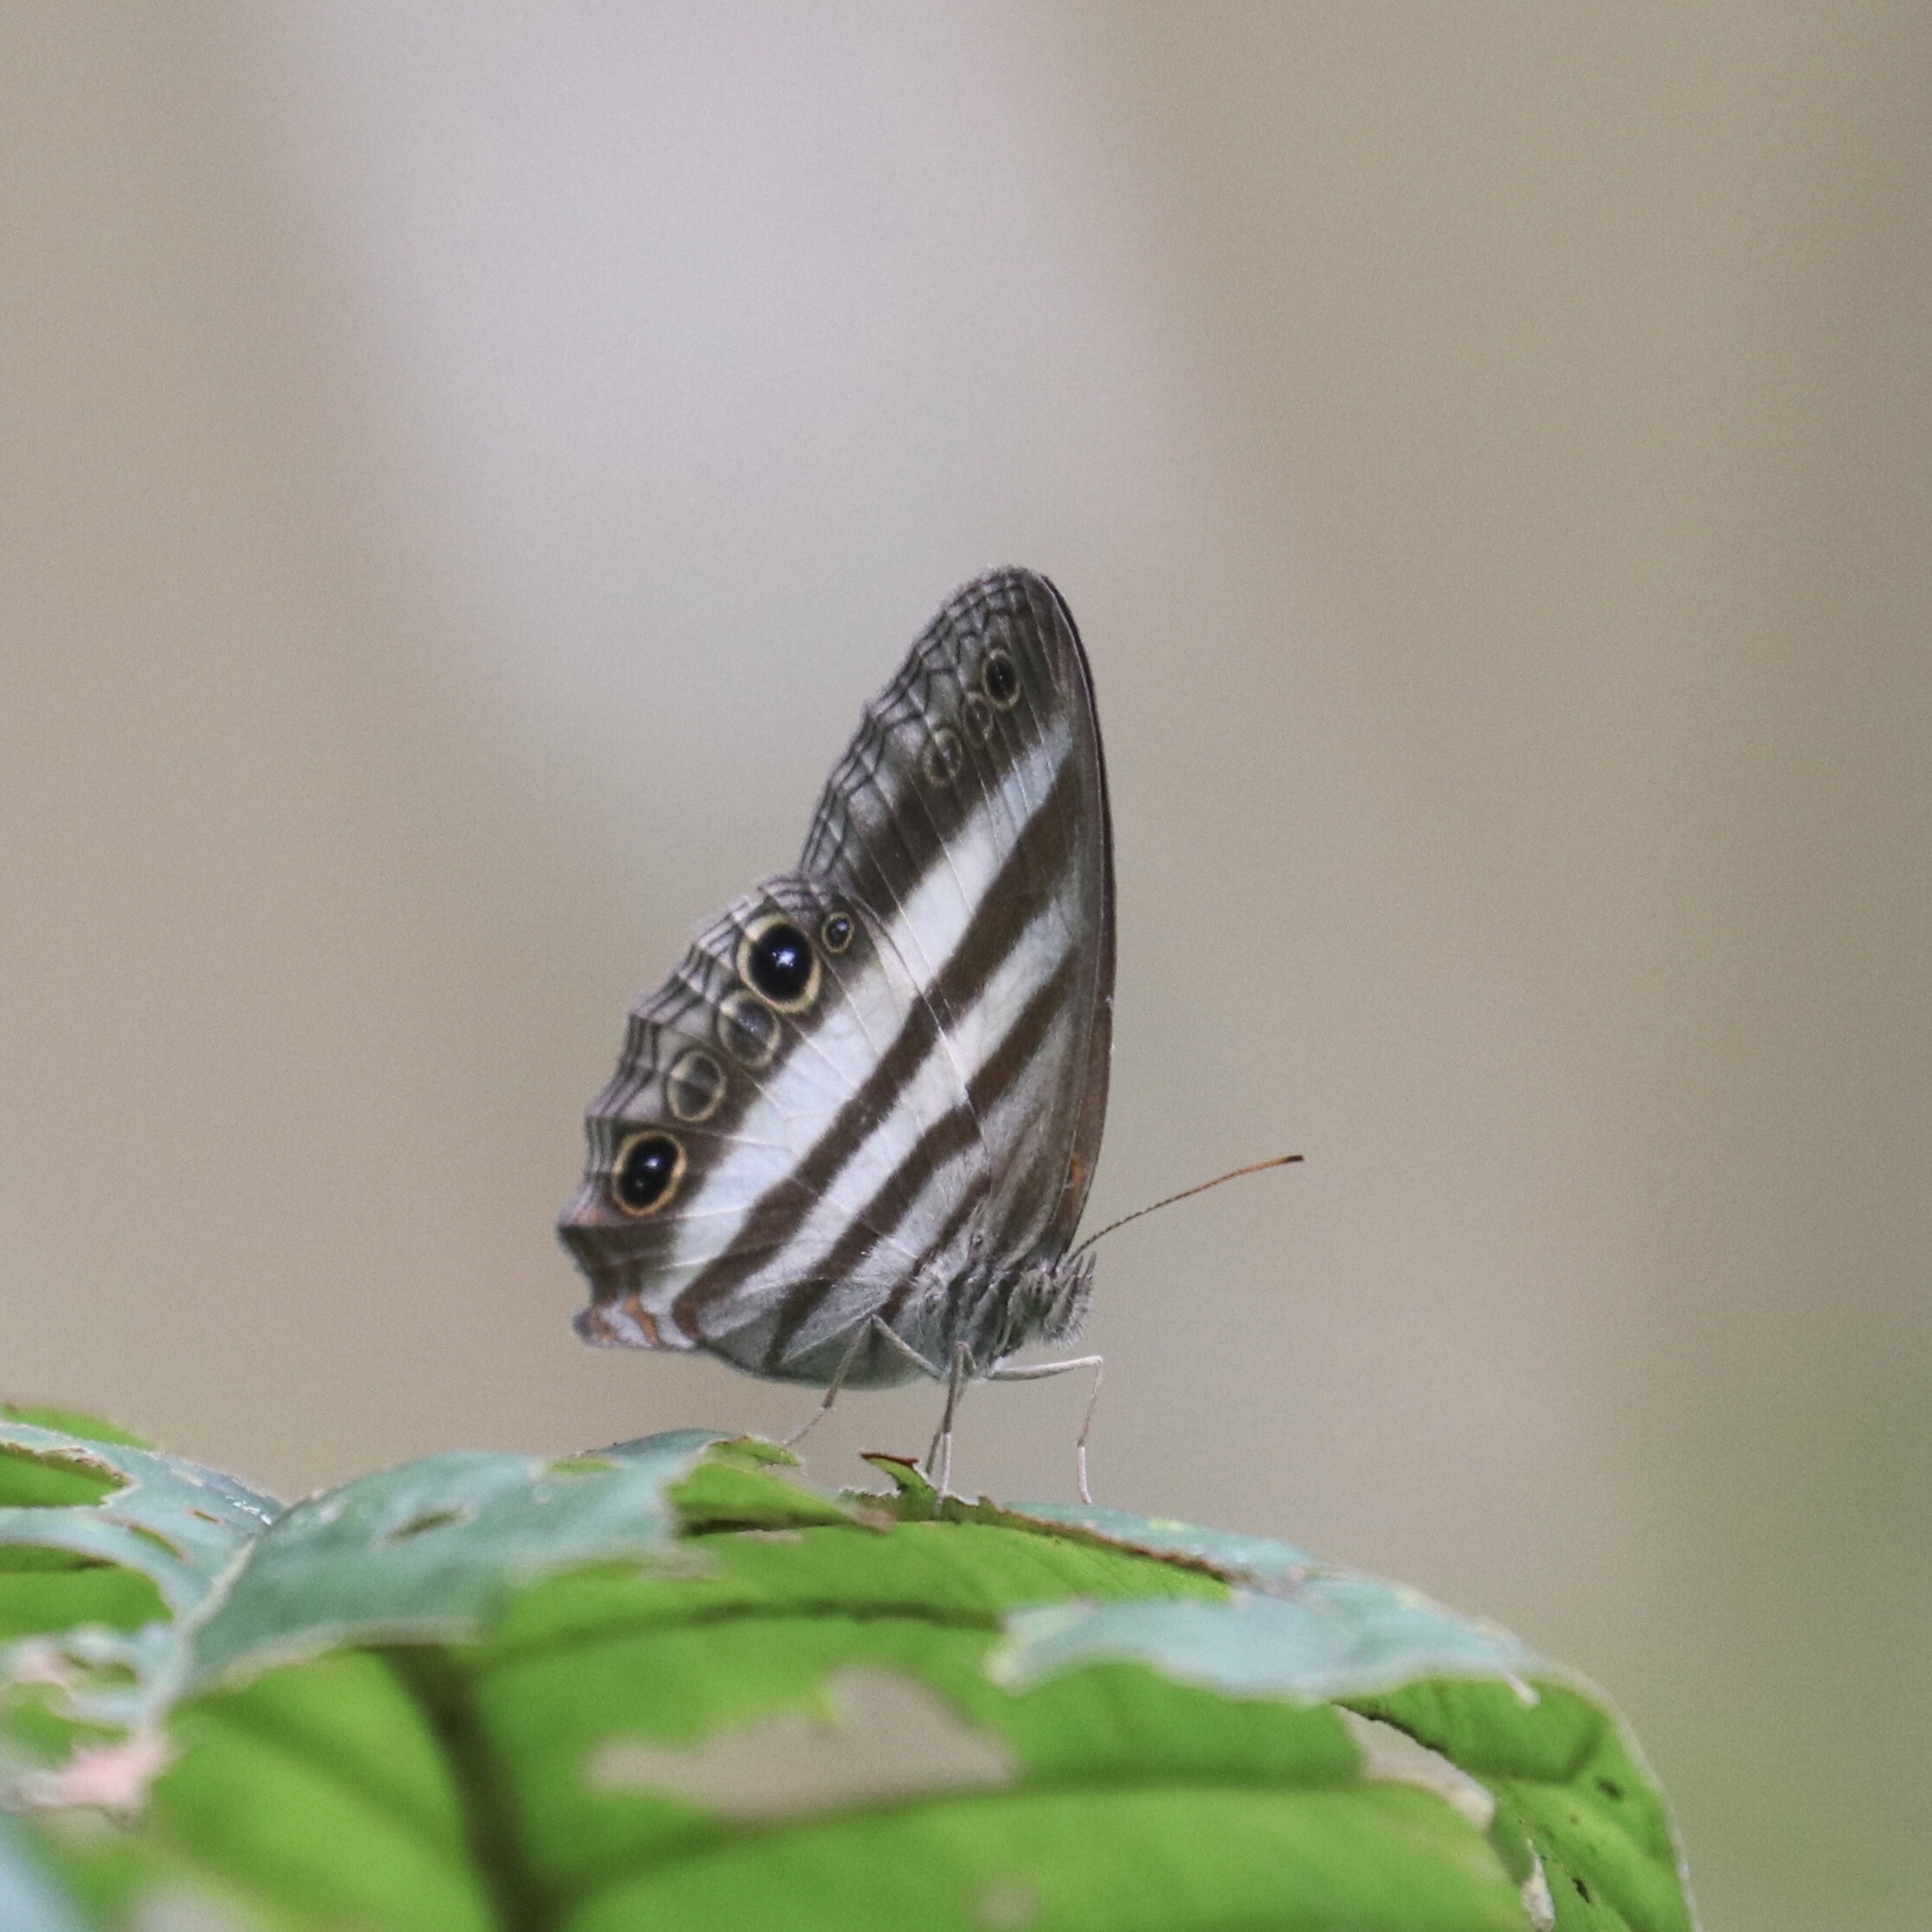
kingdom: Animalia
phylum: Arthropoda
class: Insecta
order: Lepidoptera
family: Nymphalidae
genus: Pareuptychia
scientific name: Pareuptychia hesione
